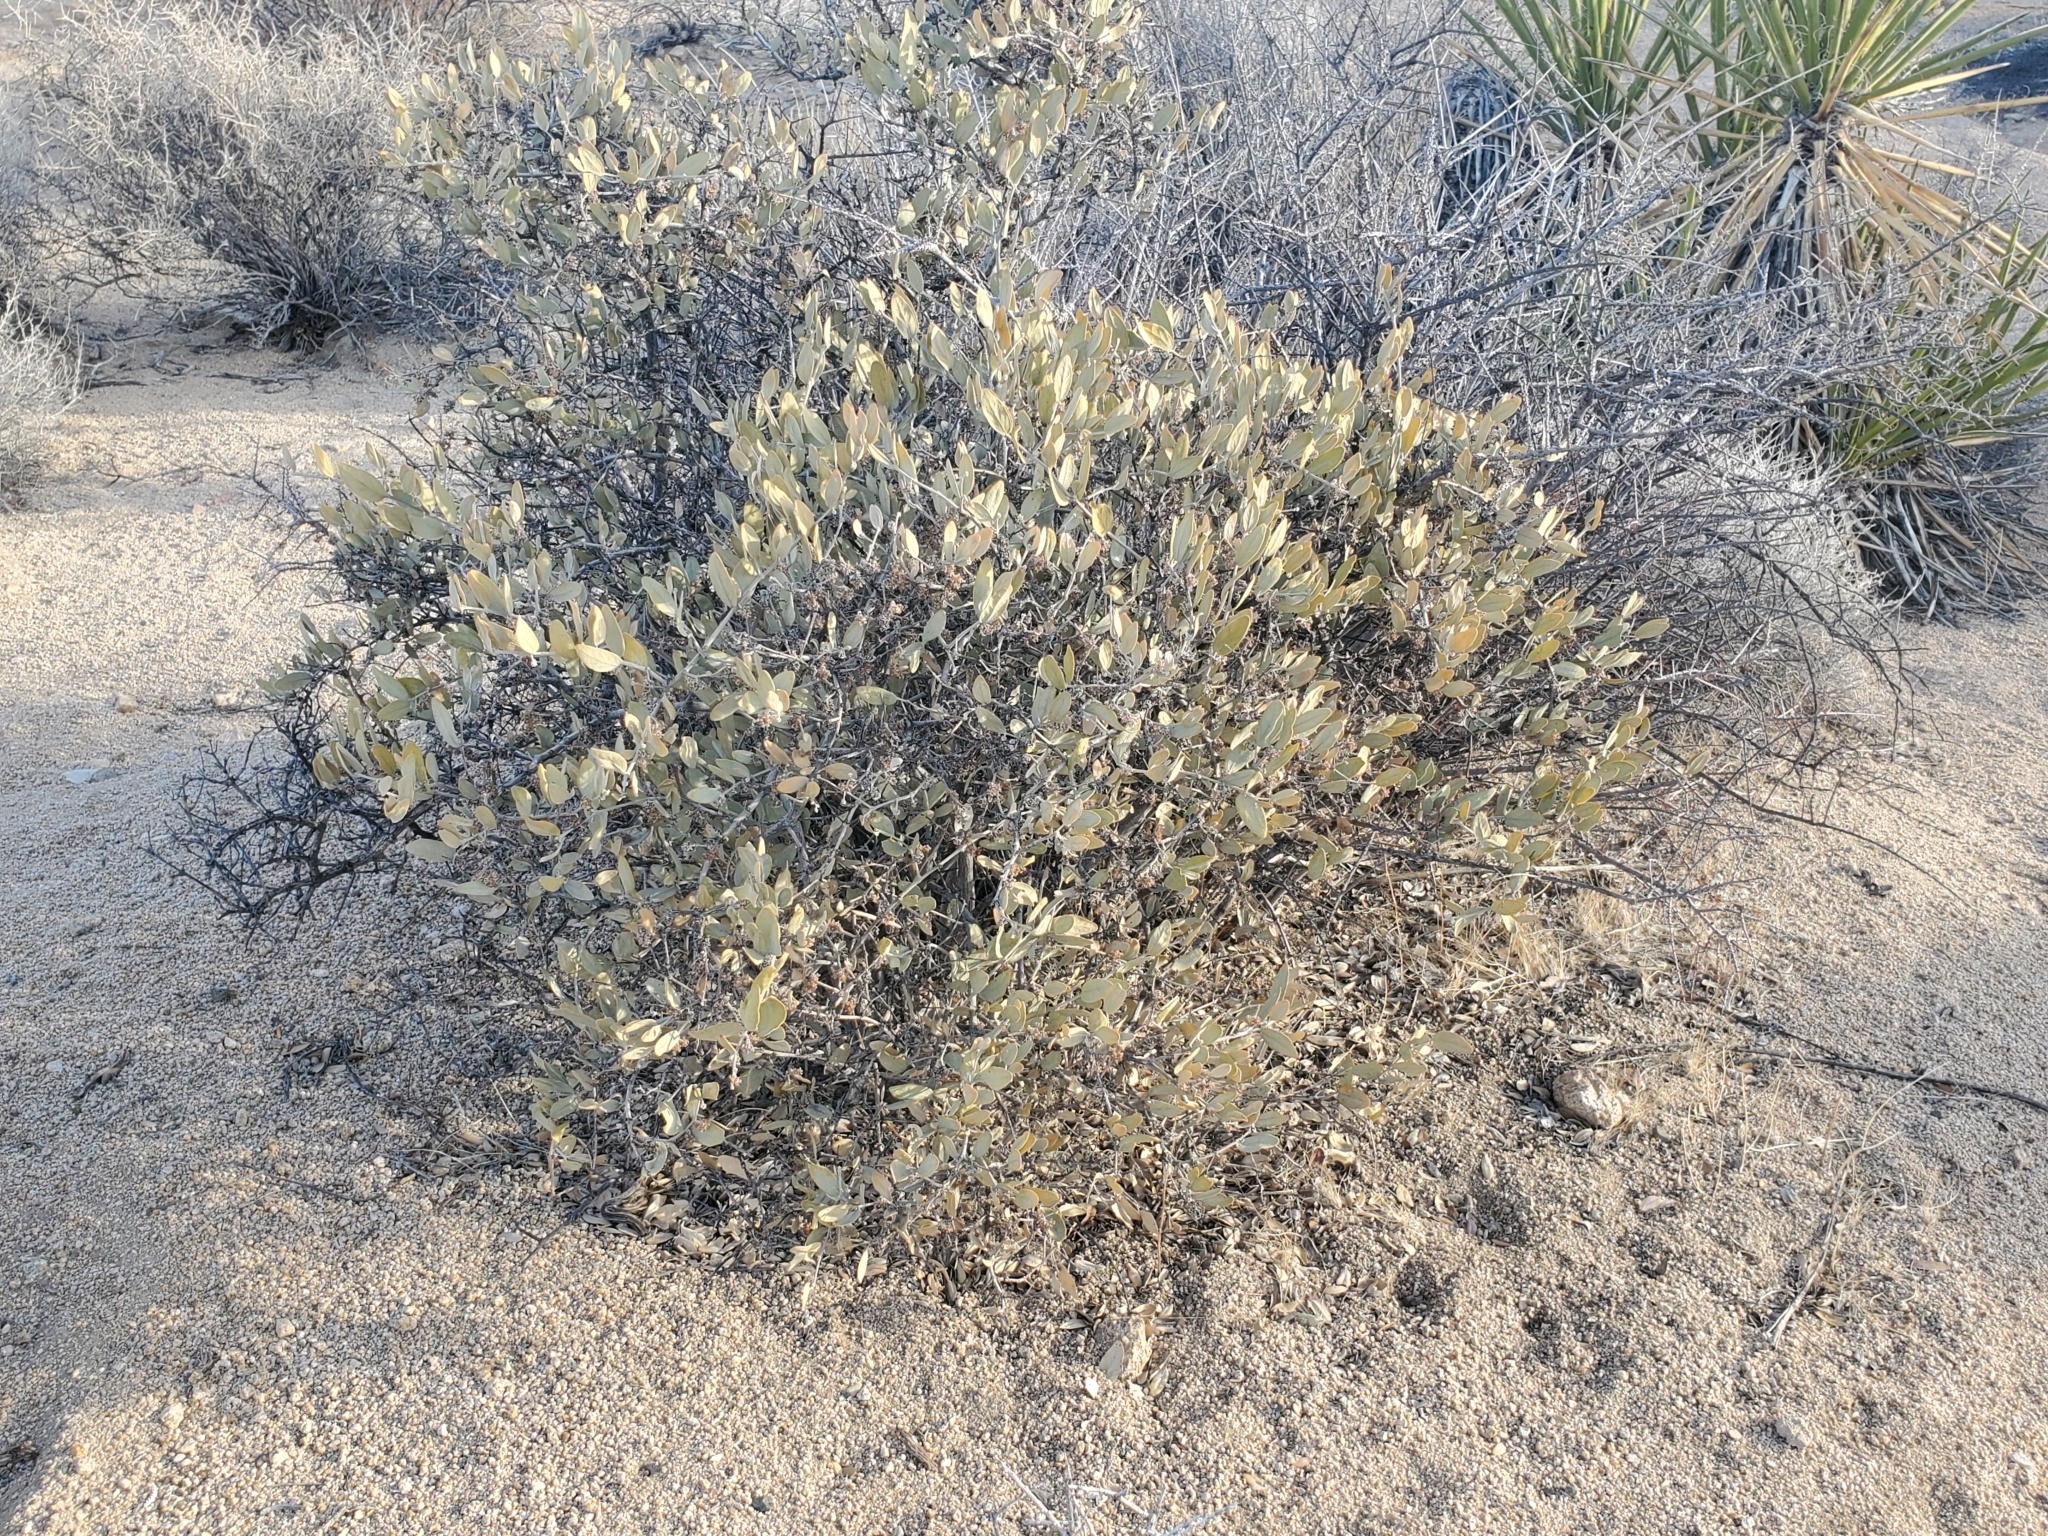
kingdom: Plantae
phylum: Tracheophyta
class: Magnoliopsida
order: Caryophyllales
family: Simmondsiaceae
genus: Simmondsia
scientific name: Simmondsia chinensis
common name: Jojoba
